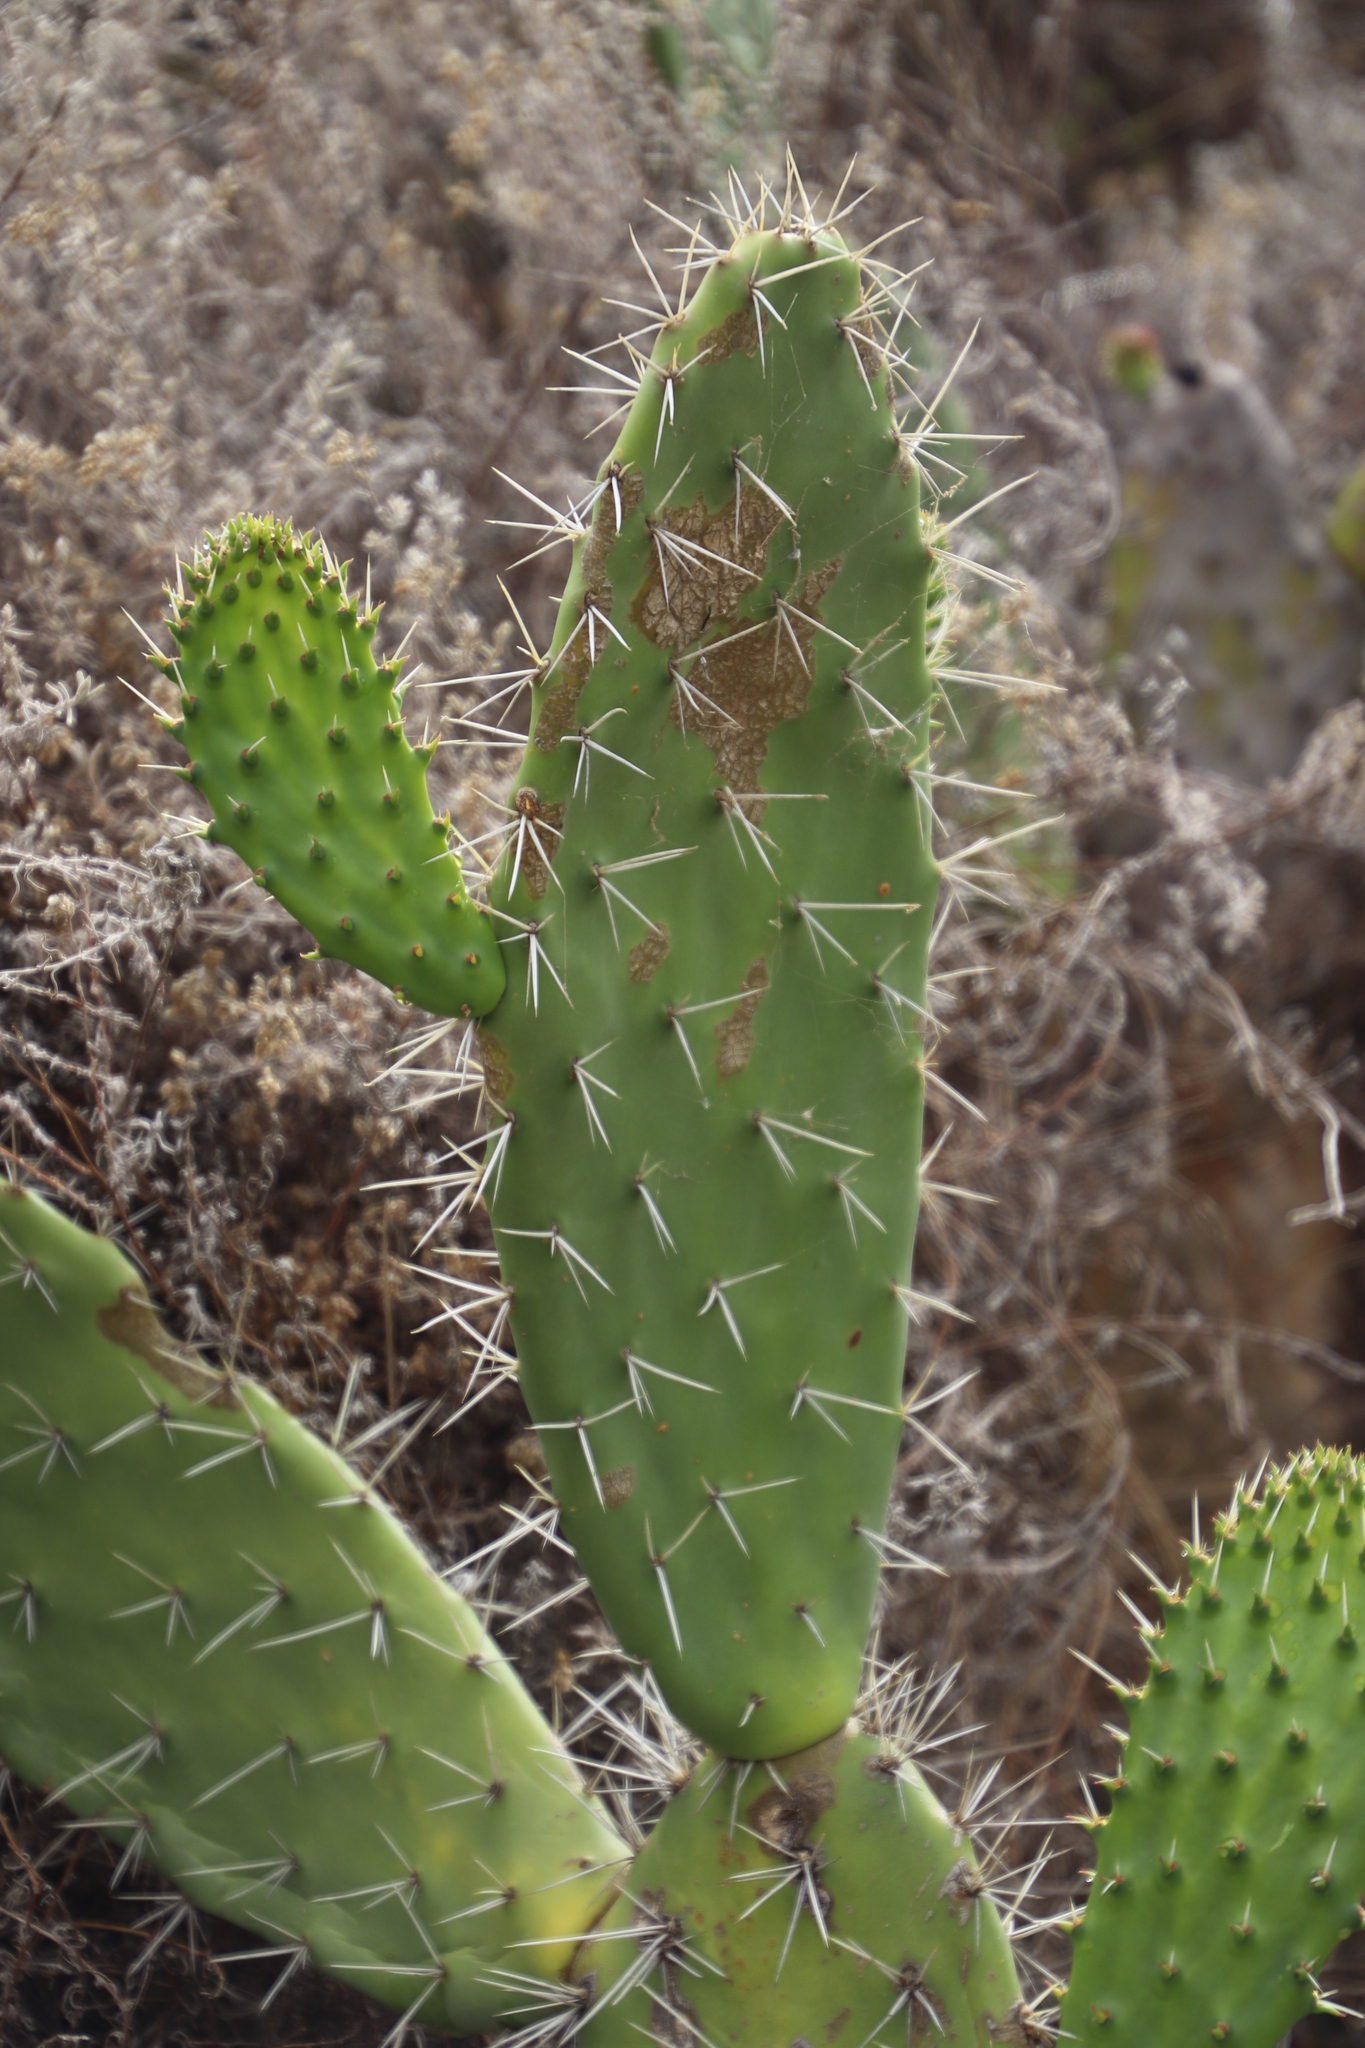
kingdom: Plantae
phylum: Tracheophyta
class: Magnoliopsida
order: Caryophyllales
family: Cactaceae
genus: Opuntia
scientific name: Opuntia ficus-indica
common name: Barbary fig
